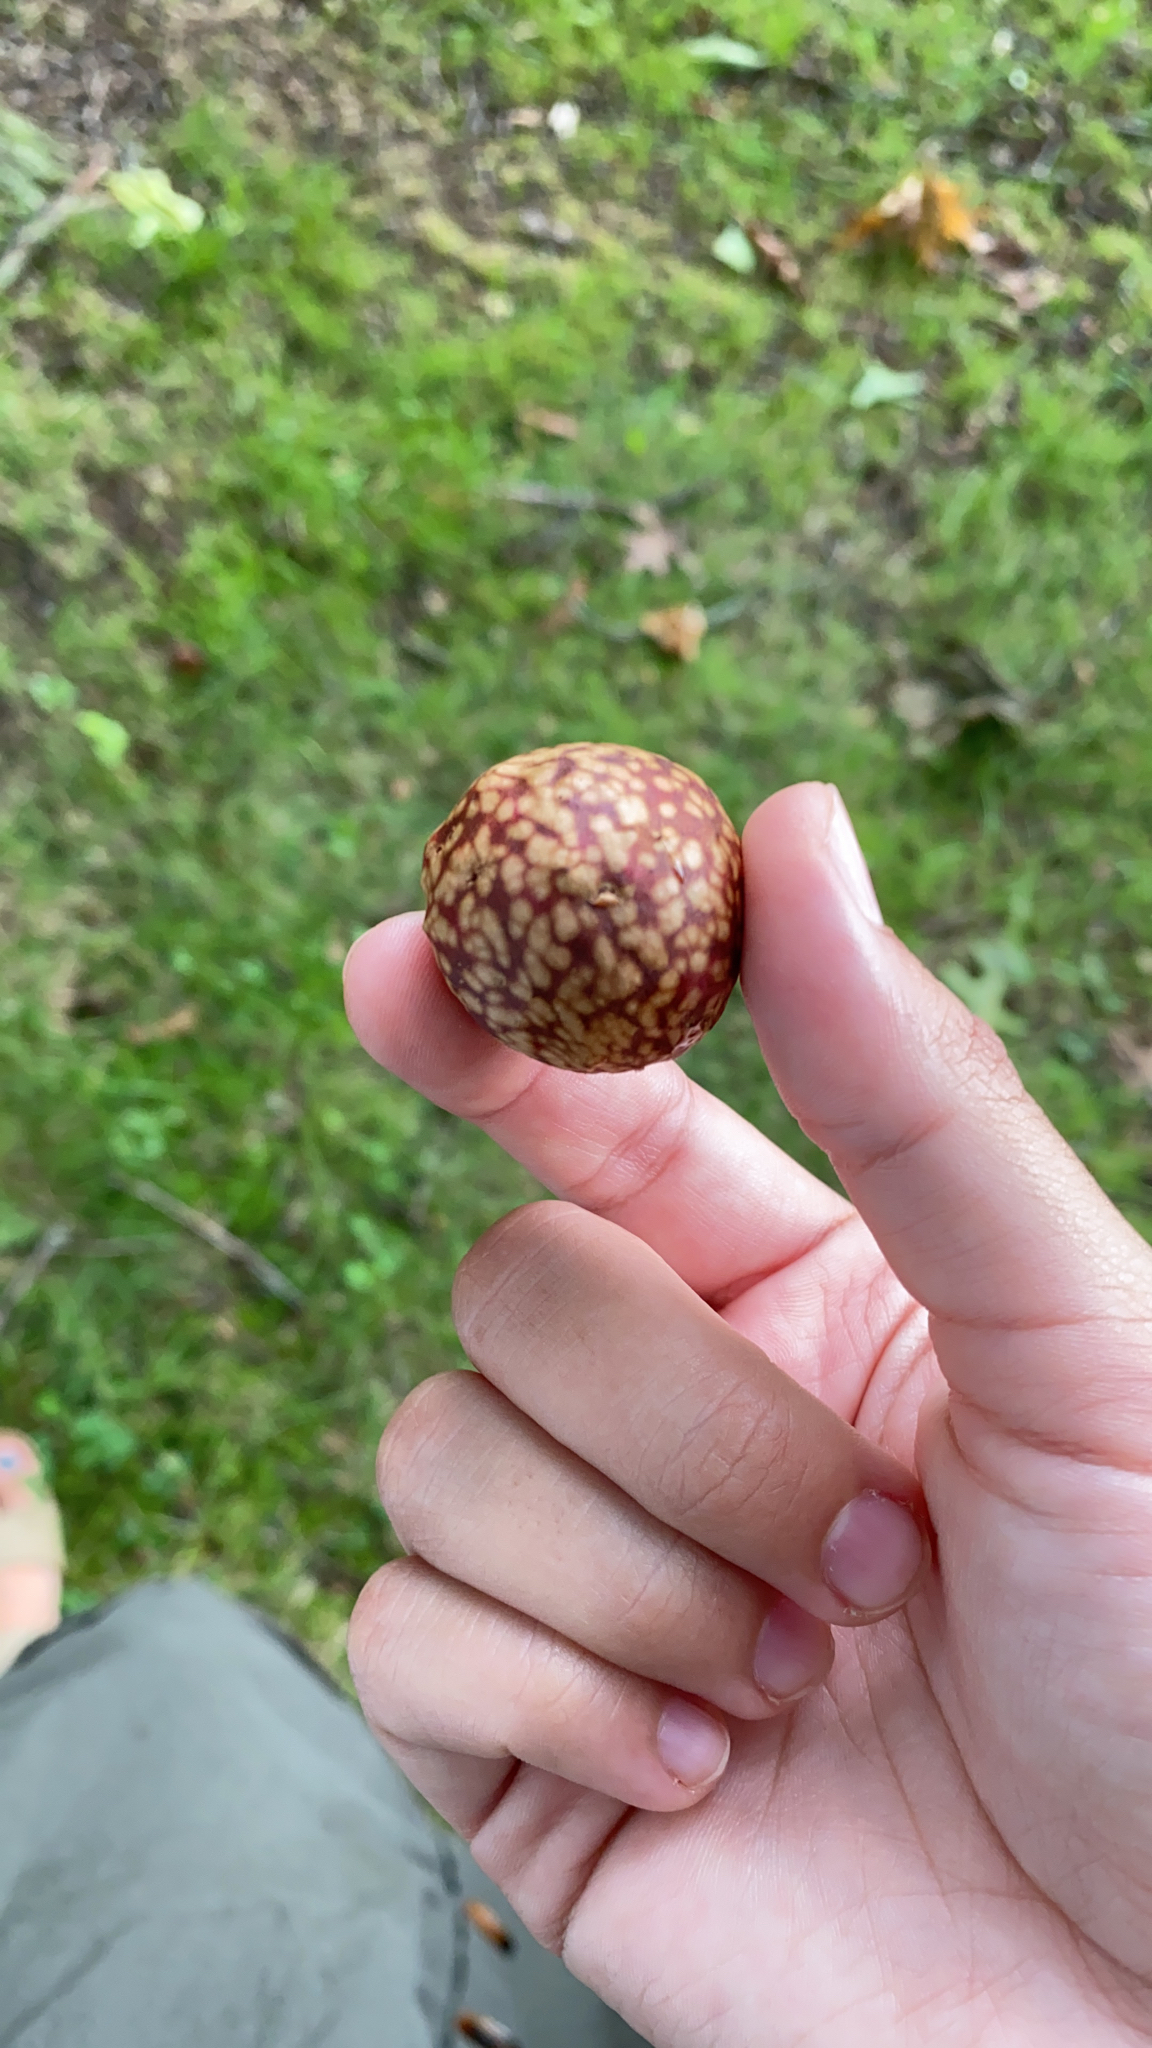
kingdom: Animalia
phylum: Arthropoda
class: Insecta
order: Hymenoptera
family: Cynipidae
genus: Amphibolips
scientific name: Amphibolips
